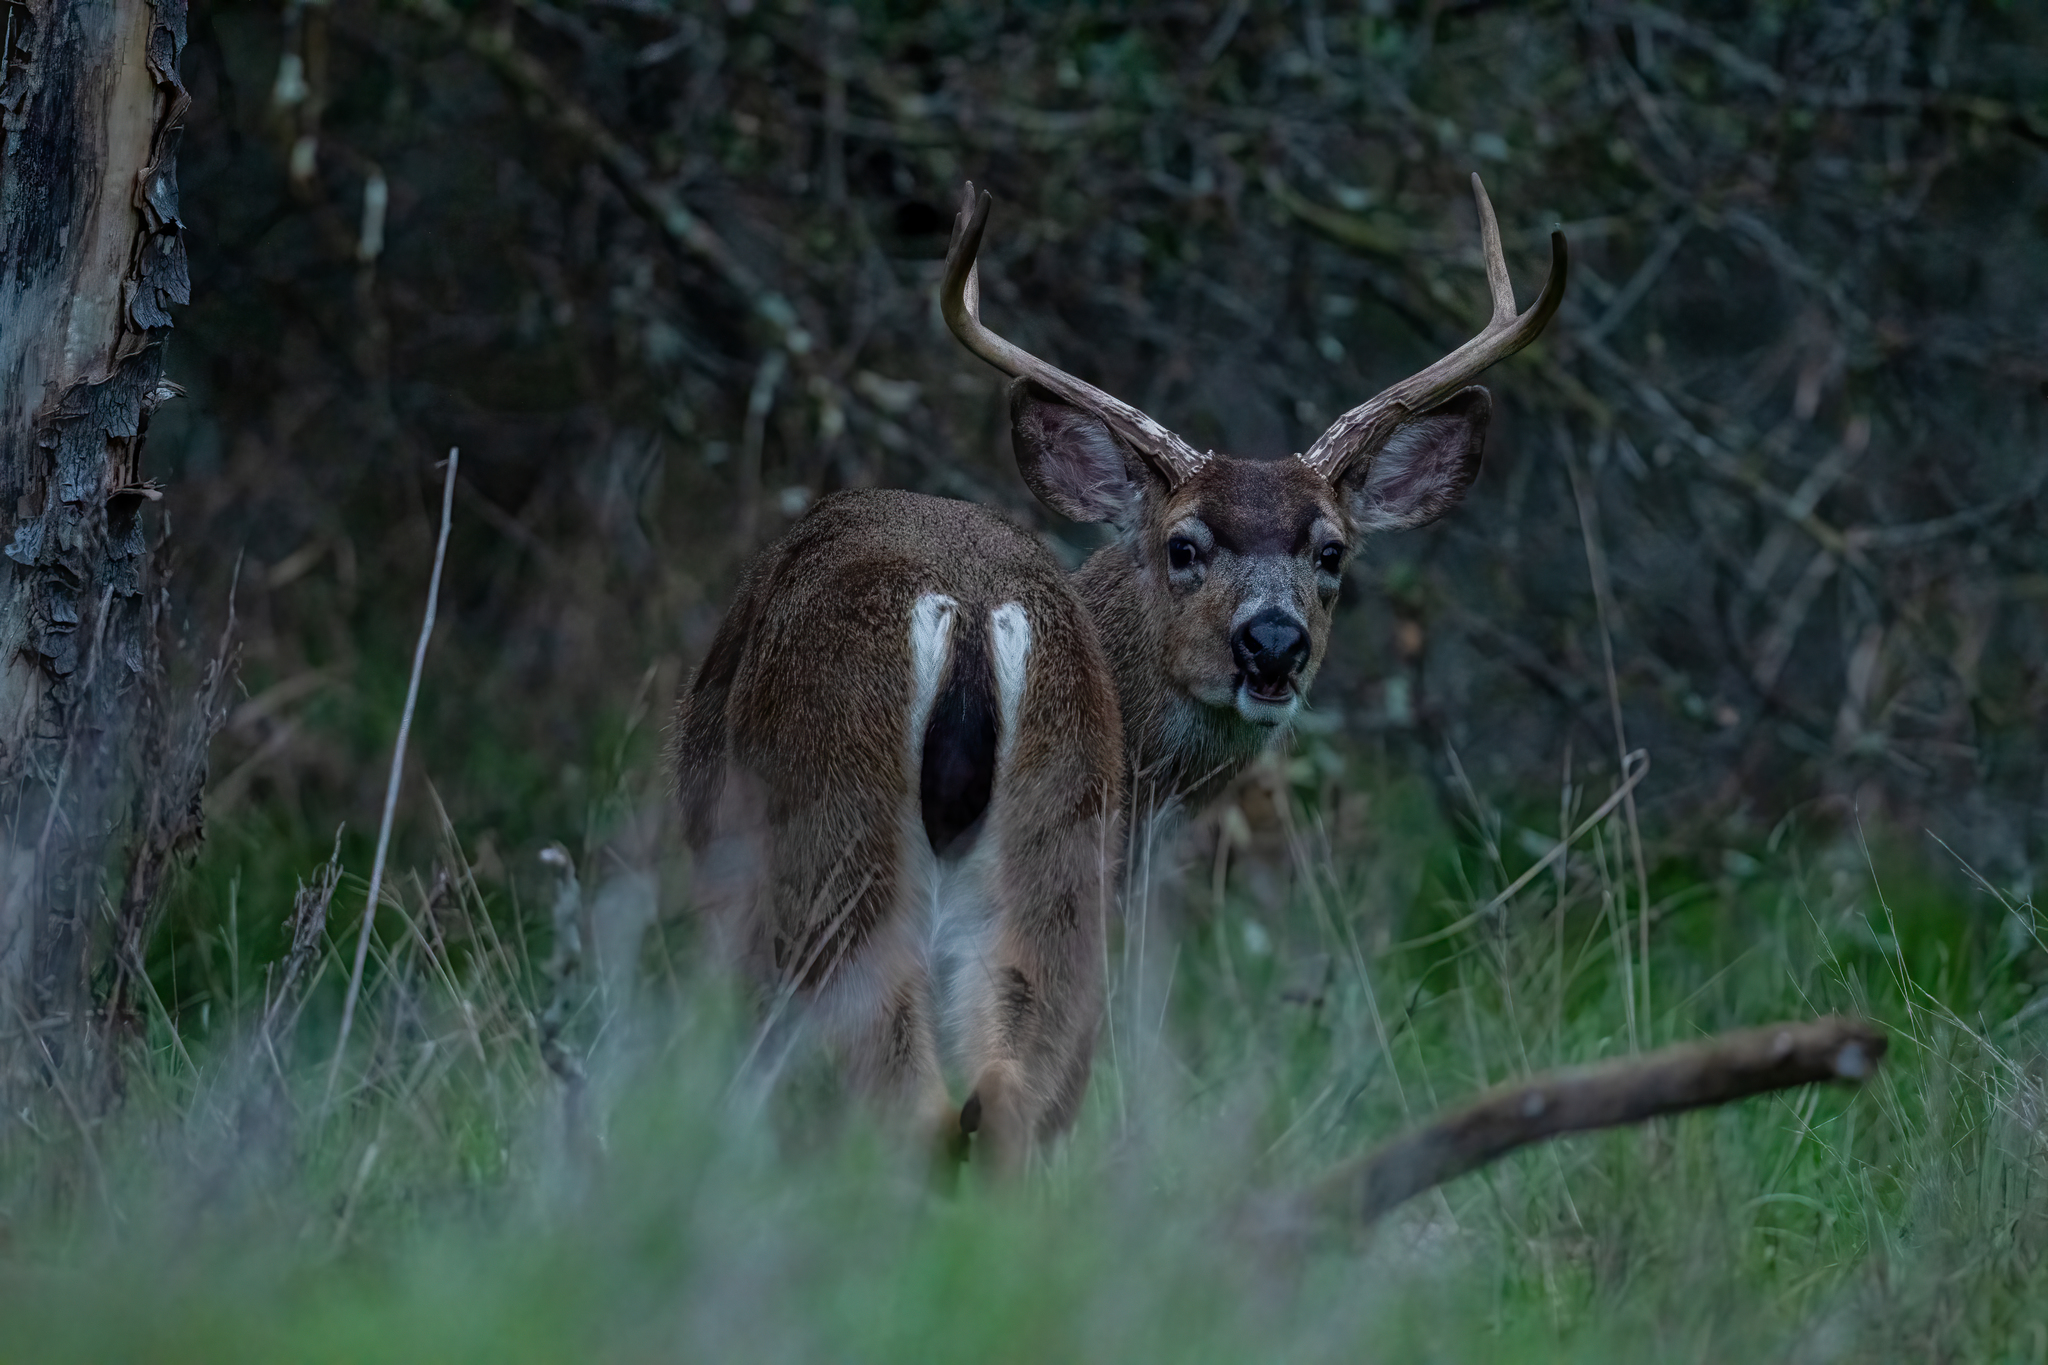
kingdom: Animalia
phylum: Chordata
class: Mammalia
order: Artiodactyla
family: Cervidae
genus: Odocoileus
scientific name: Odocoileus hemionus
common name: Mule deer
